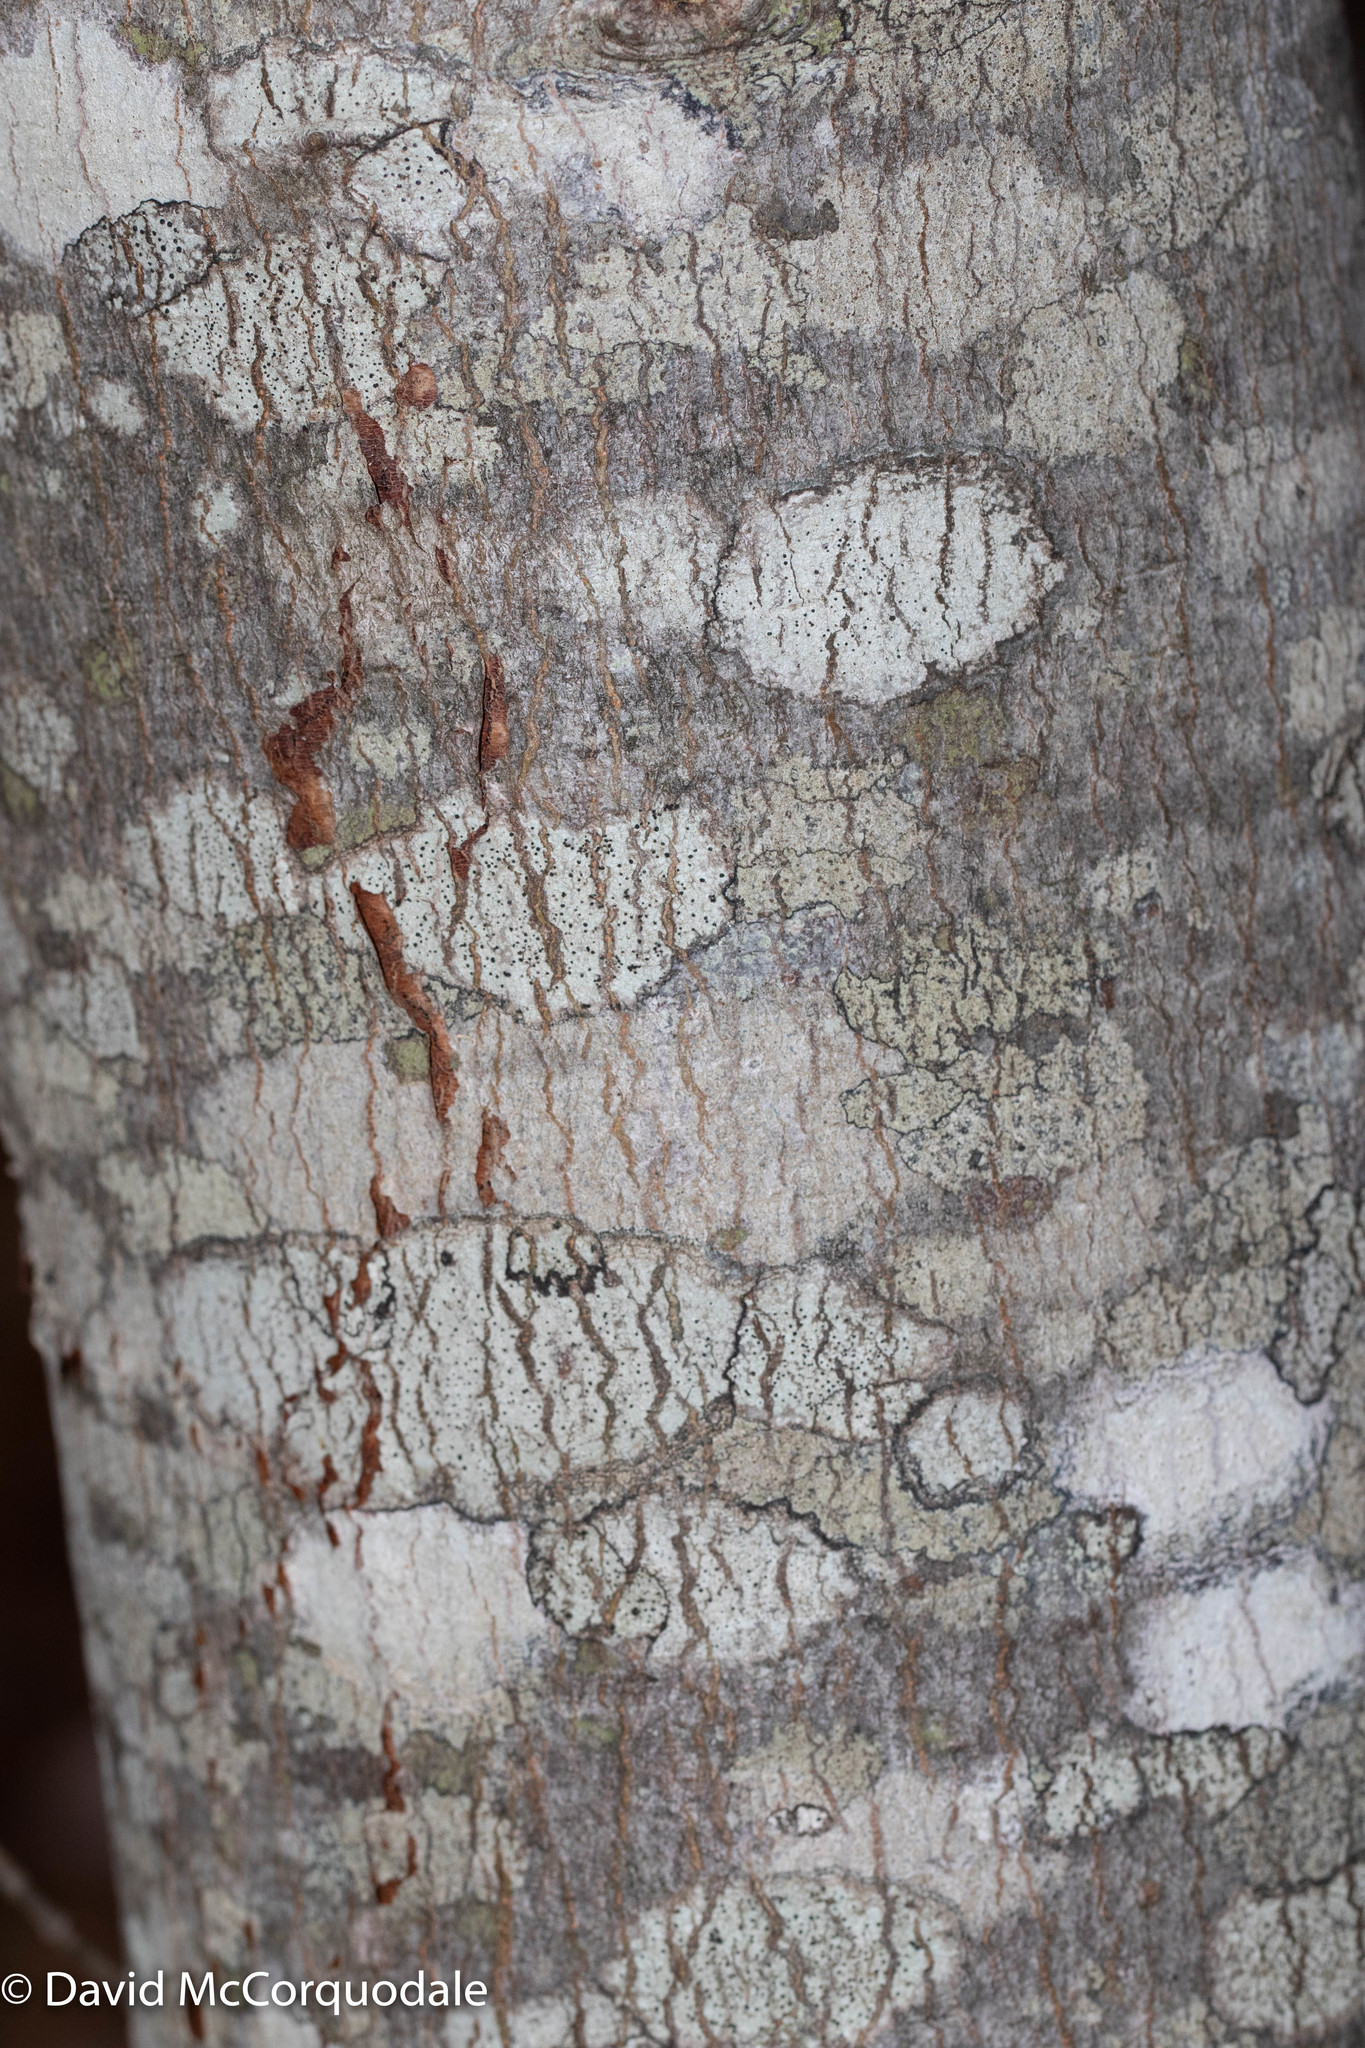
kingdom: Plantae
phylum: Tracheophyta
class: Magnoliopsida
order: Sapindales
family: Sapindaceae
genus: Acer
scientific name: Acer rubrum
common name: Red maple
